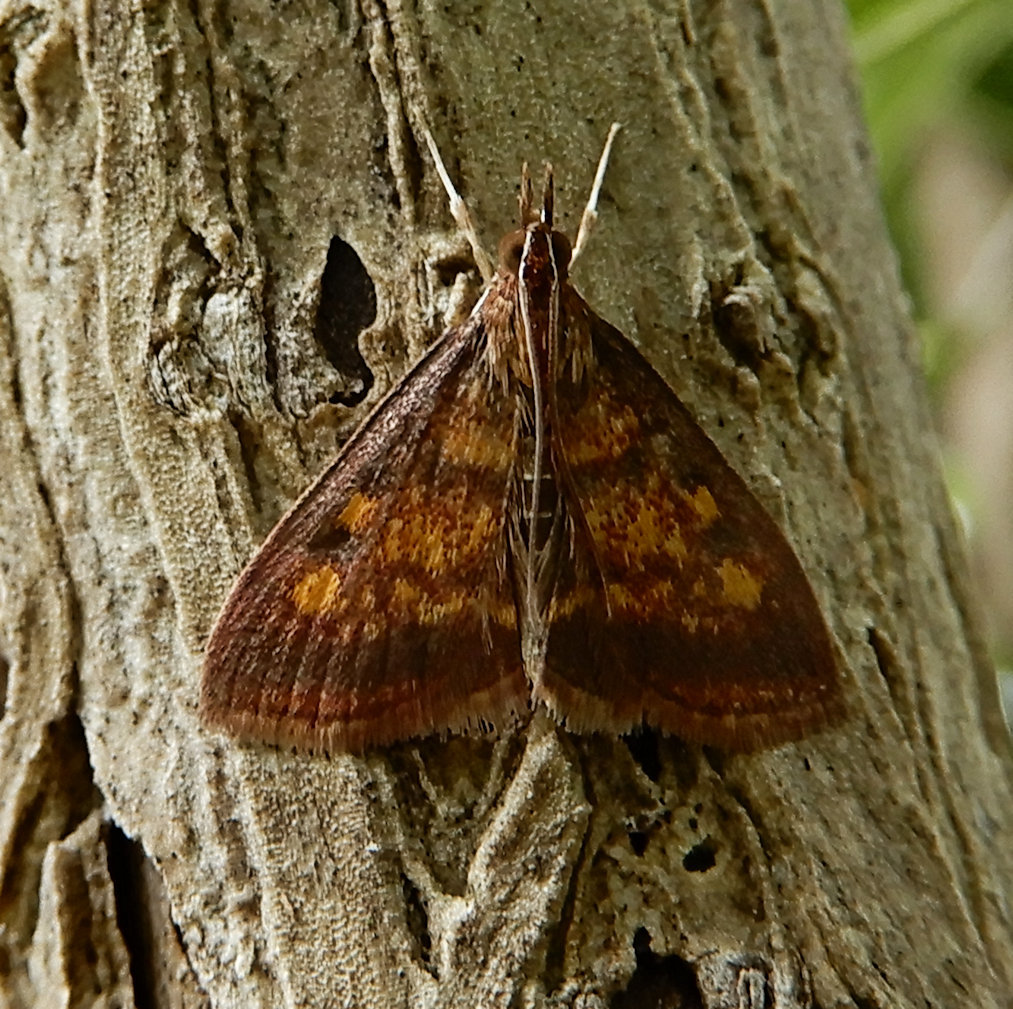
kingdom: Animalia
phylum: Arthropoda
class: Insecta
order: Lepidoptera
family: Crambidae
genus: Pyrausta
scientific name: Pyrausta acrionalis
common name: Mint-loving pyrausta moth
